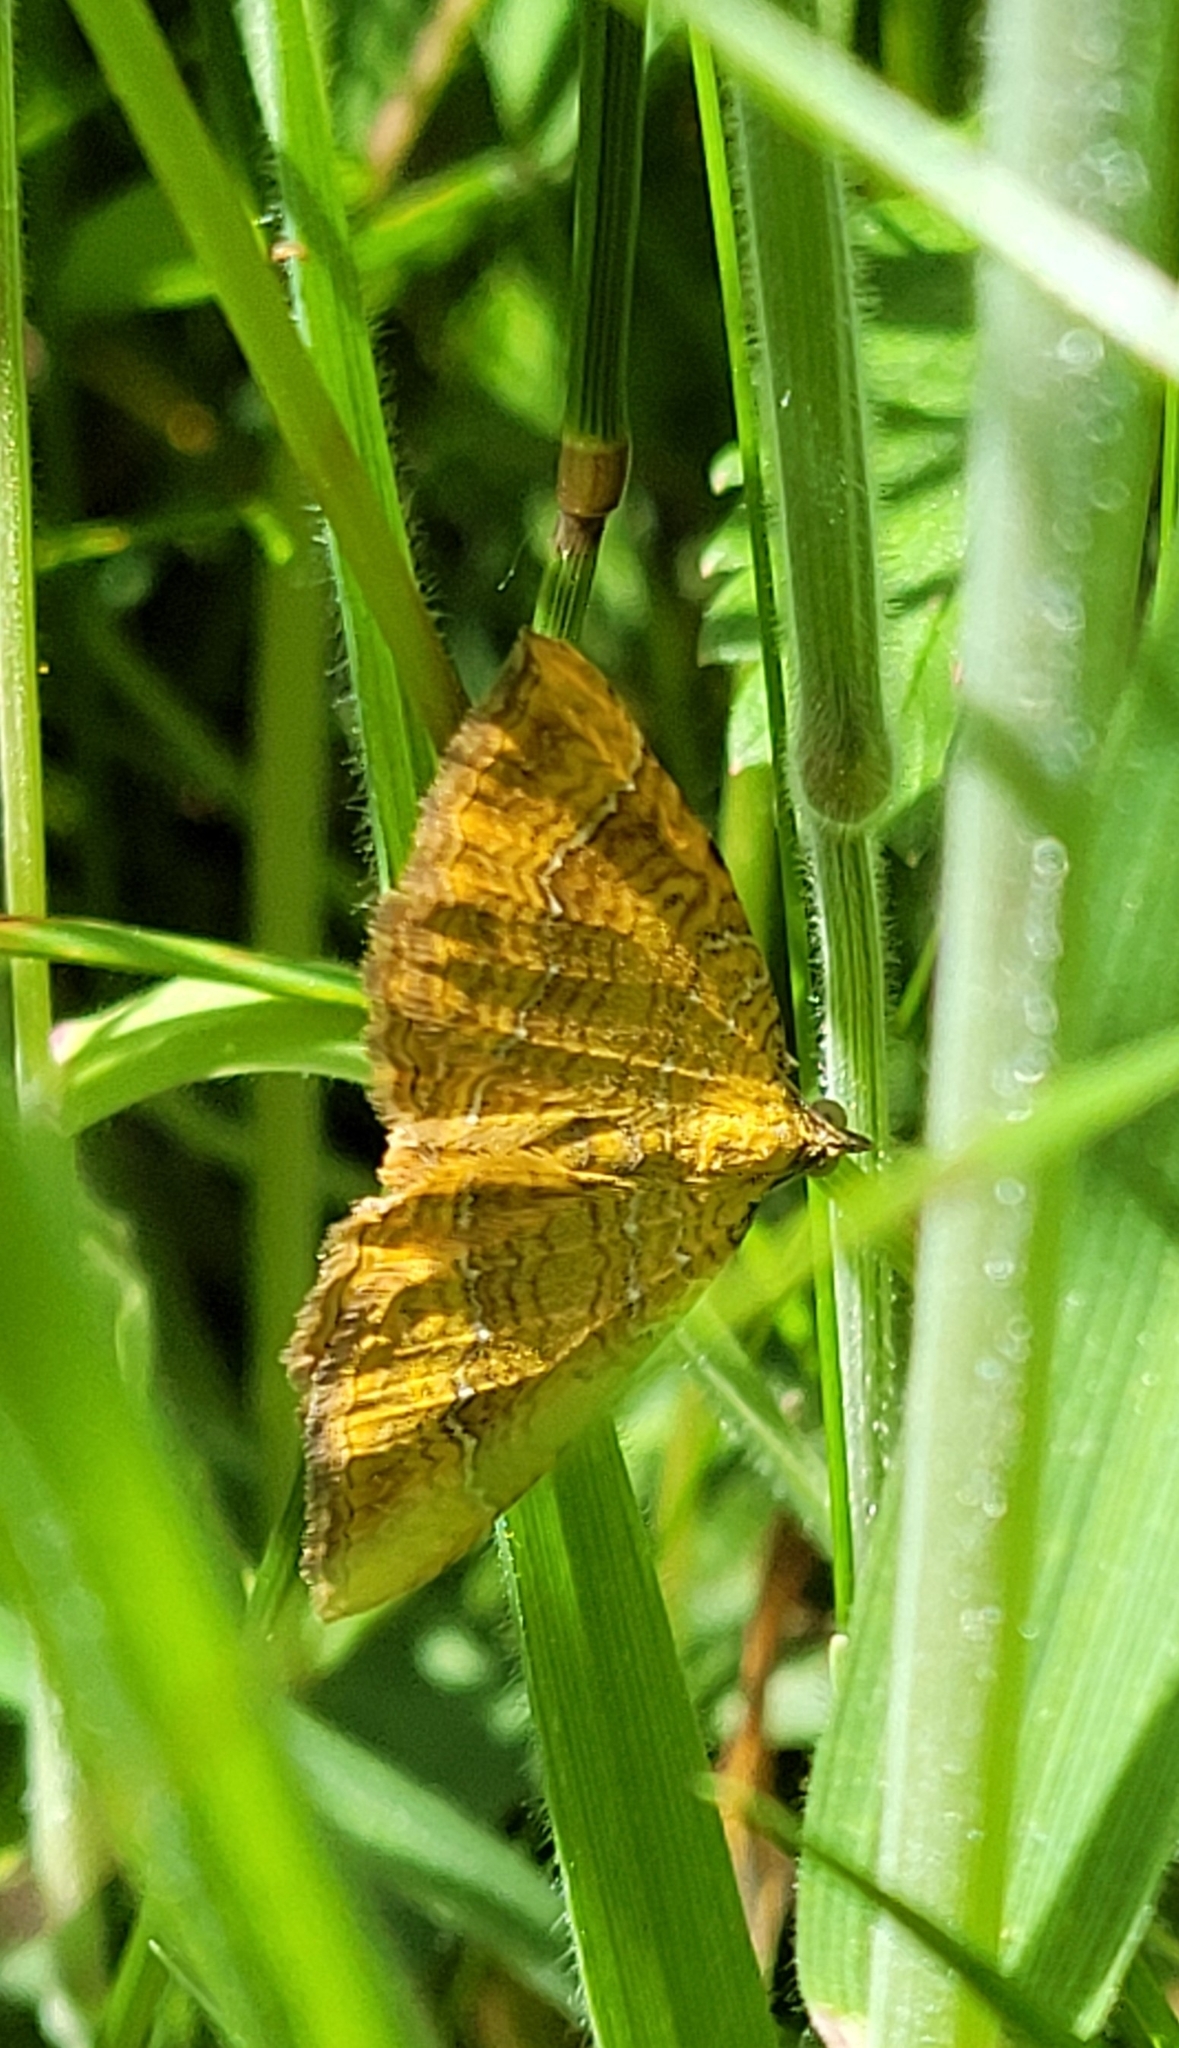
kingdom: Animalia
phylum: Arthropoda
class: Insecta
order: Lepidoptera
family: Geometridae
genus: Camptogramma
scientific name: Camptogramma bilineata
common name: Yellow shell
